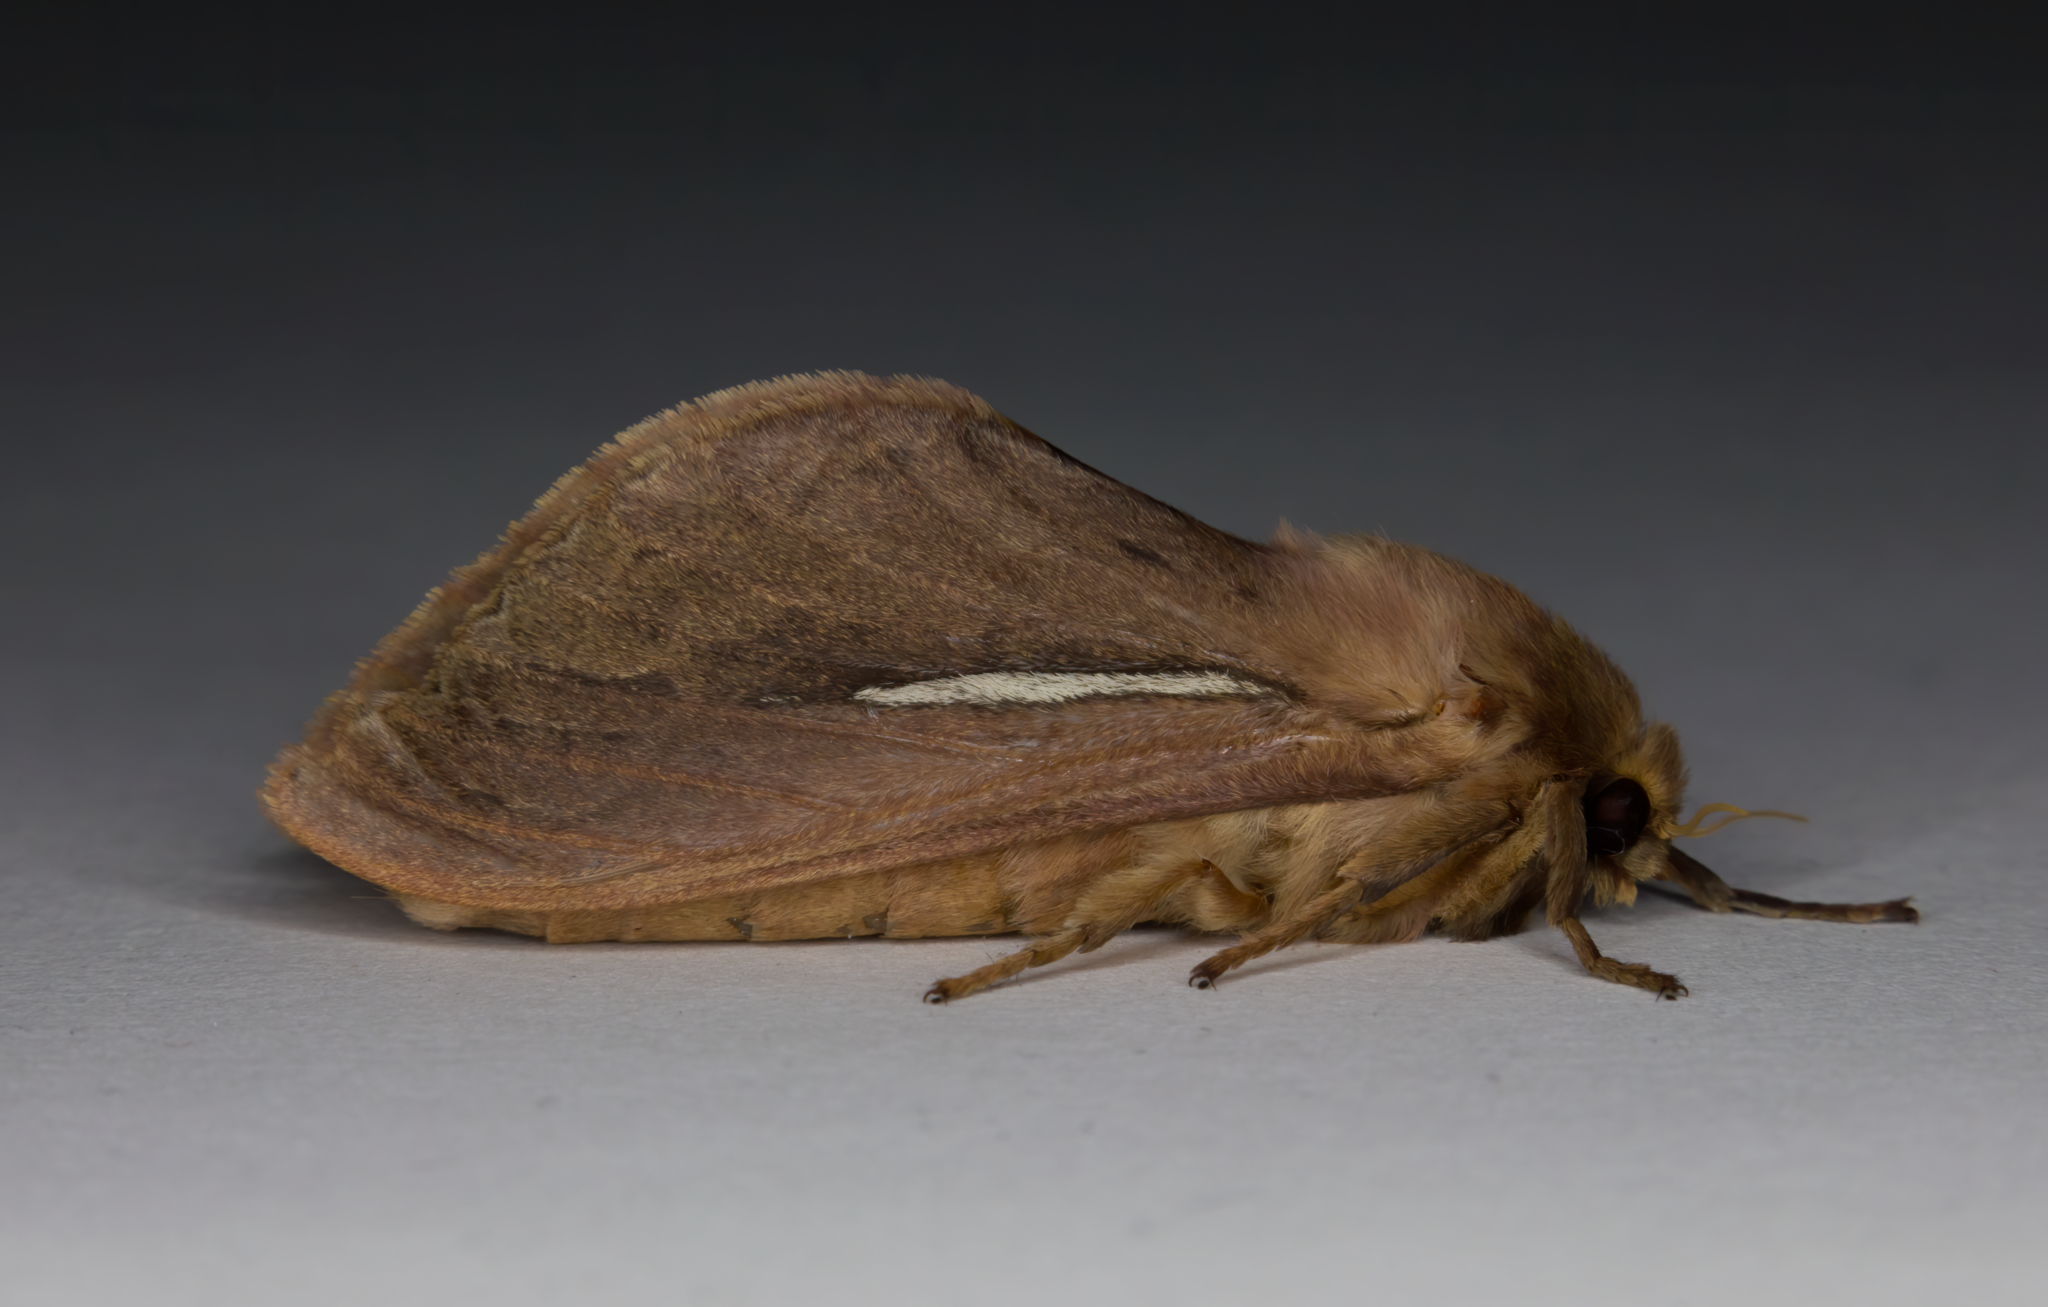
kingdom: Animalia
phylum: Arthropoda
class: Insecta
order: Lepidoptera
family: Hepialidae
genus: Wiseana
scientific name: Wiseana umbraculatus
